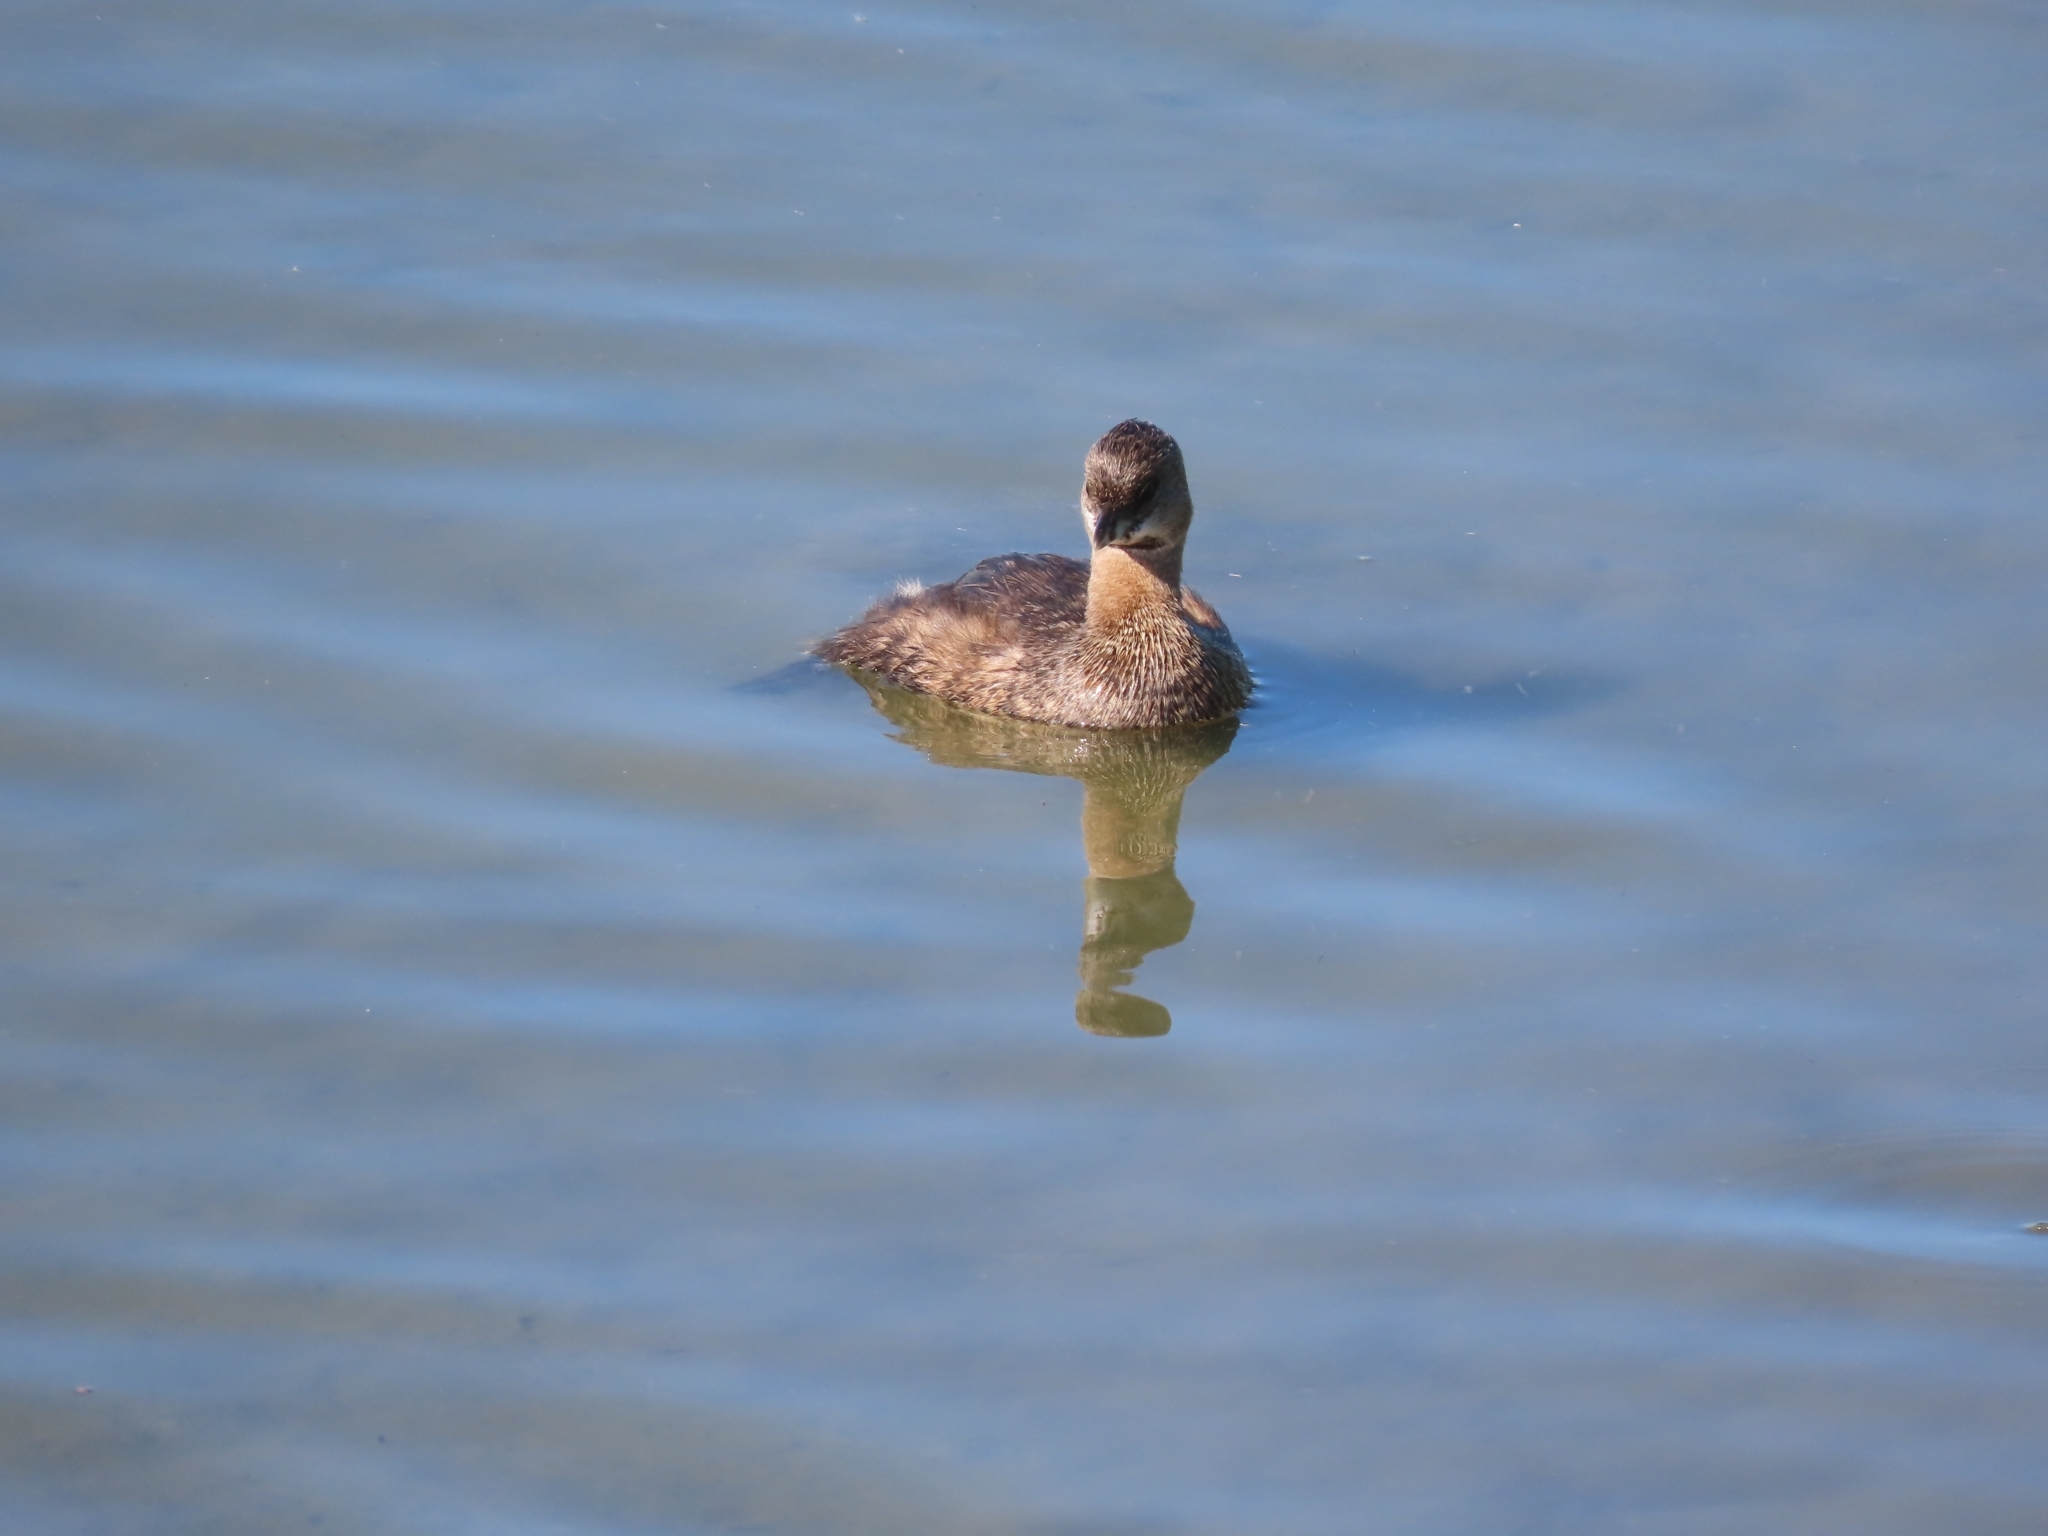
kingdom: Animalia
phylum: Chordata
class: Aves
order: Podicipediformes
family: Podicipedidae
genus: Podilymbus
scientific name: Podilymbus podiceps
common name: Pied-billed grebe
